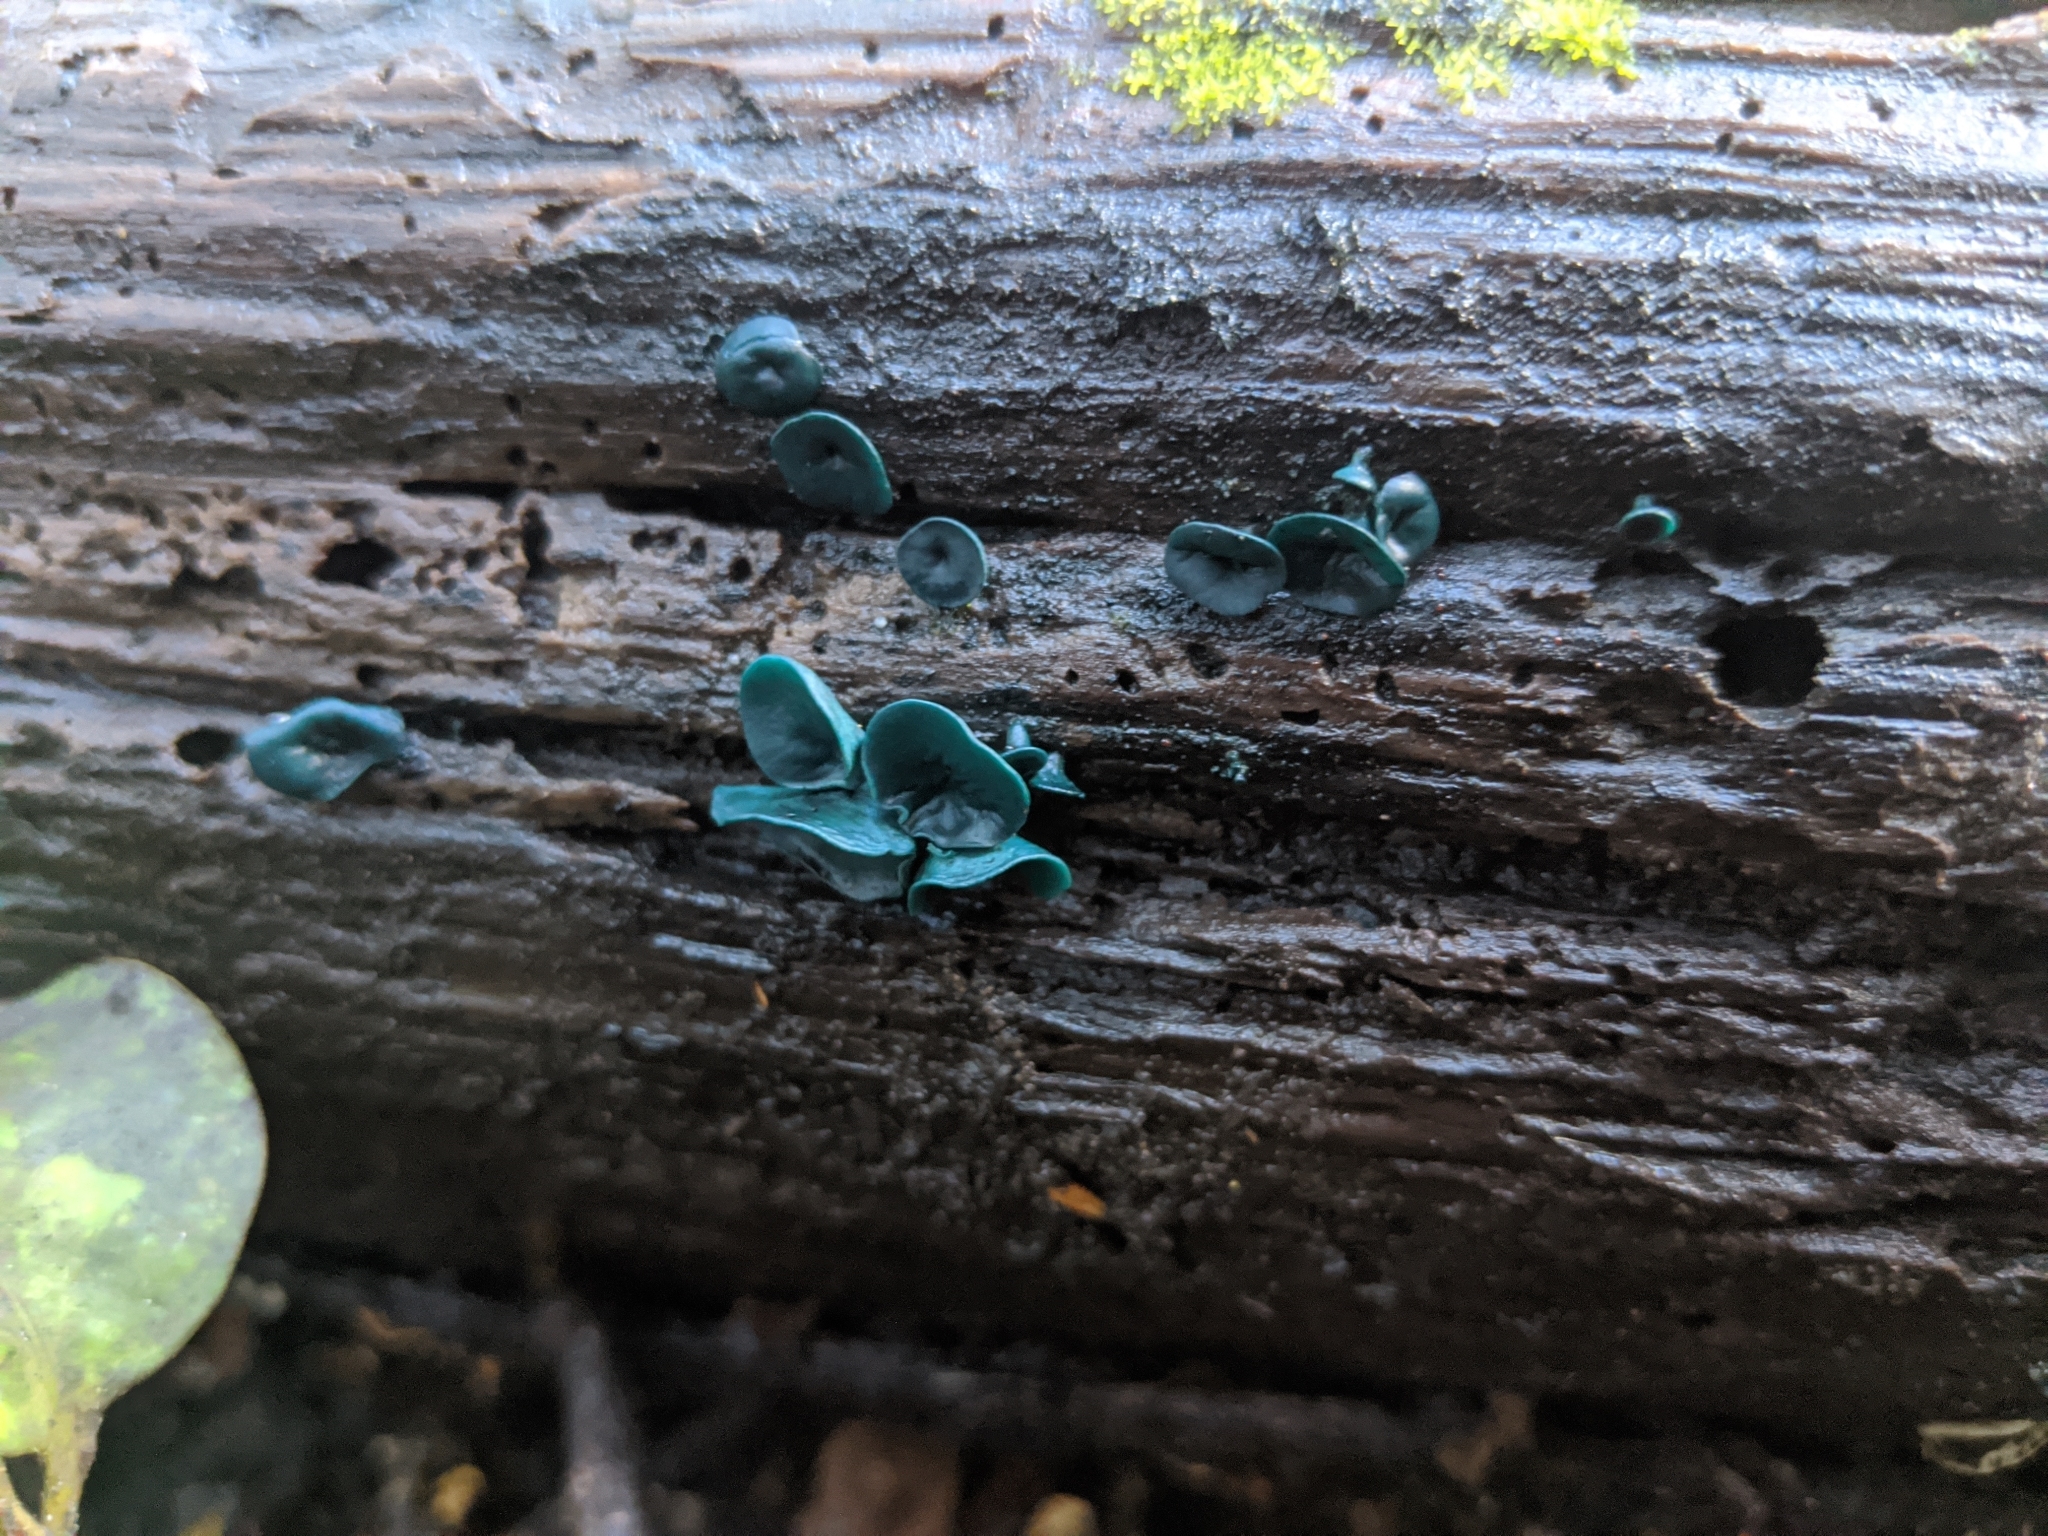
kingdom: Fungi
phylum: Ascomycota
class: Leotiomycetes
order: Helotiales
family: Chlorociboriaceae
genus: Chlorociboria
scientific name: Chlorociboria
